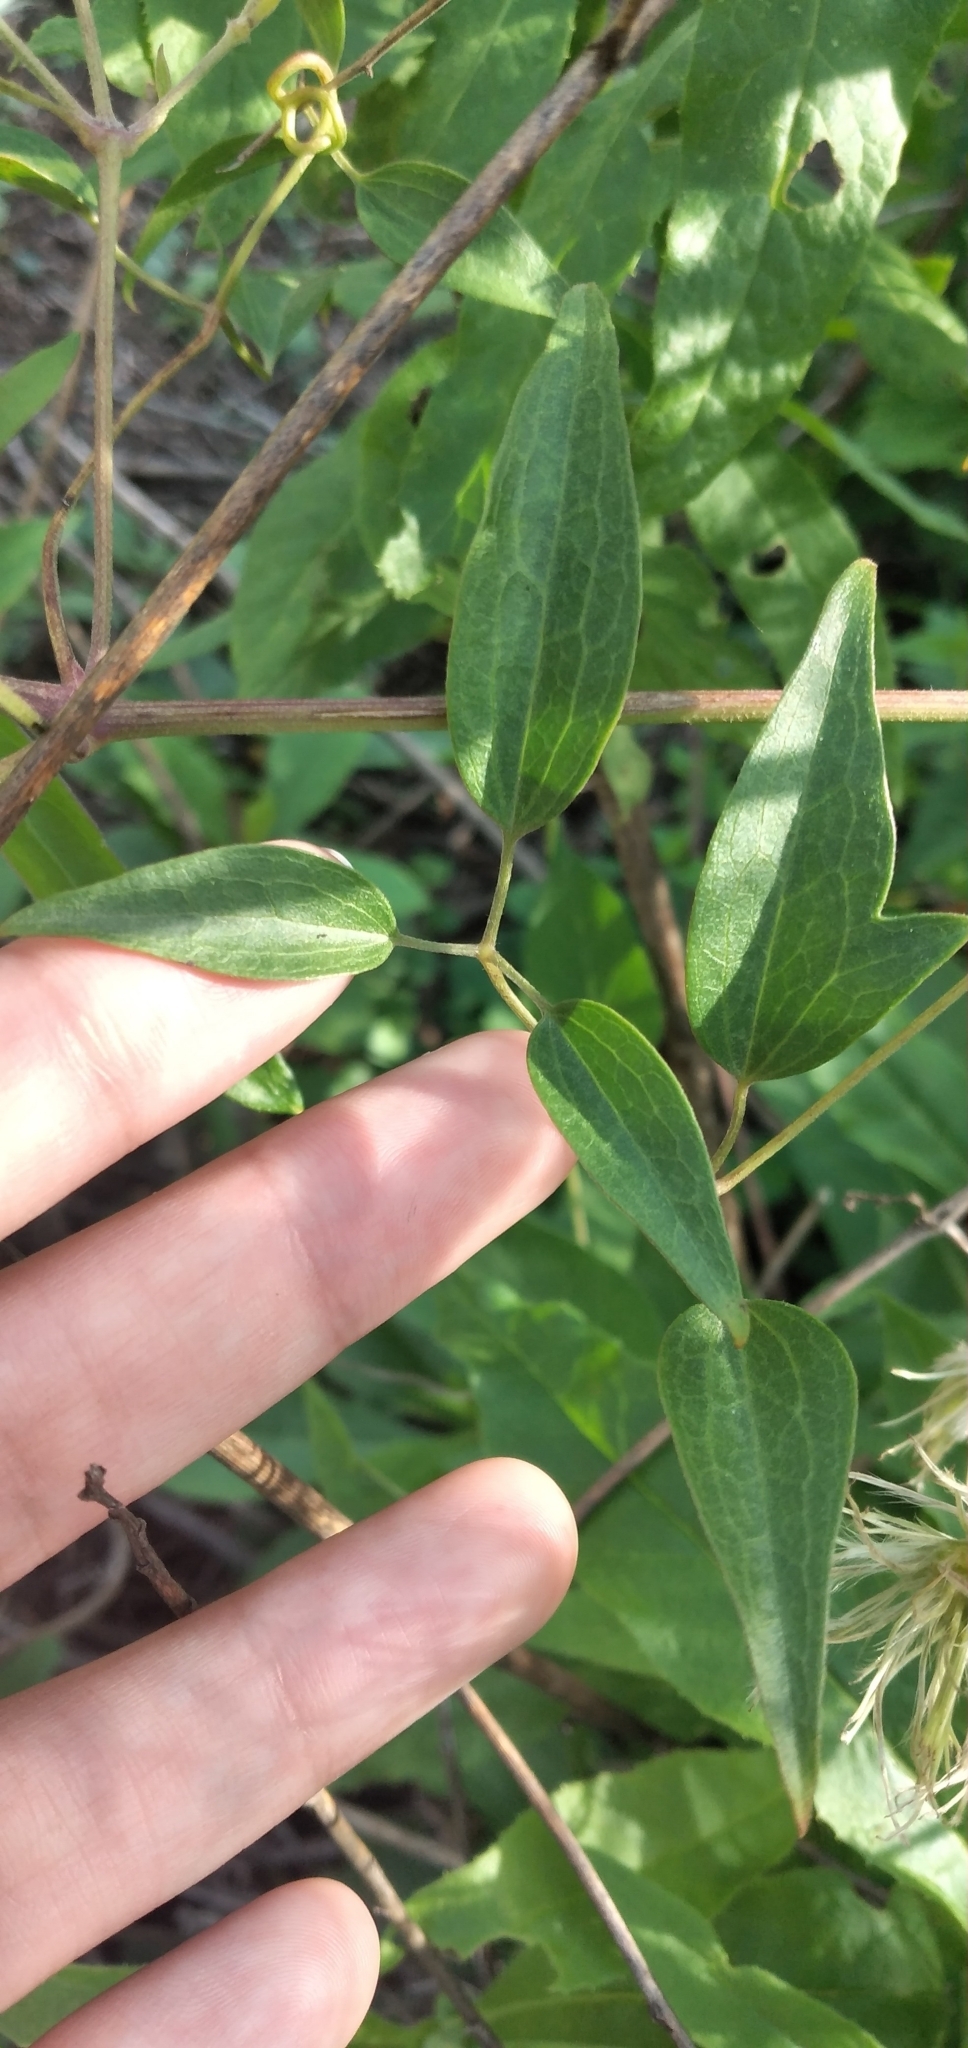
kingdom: Plantae
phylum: Tracheophyta
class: Magnoliopsida
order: Ranunculales
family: Ranunculaceae
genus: Clematis
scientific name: Clematis montevidensis
